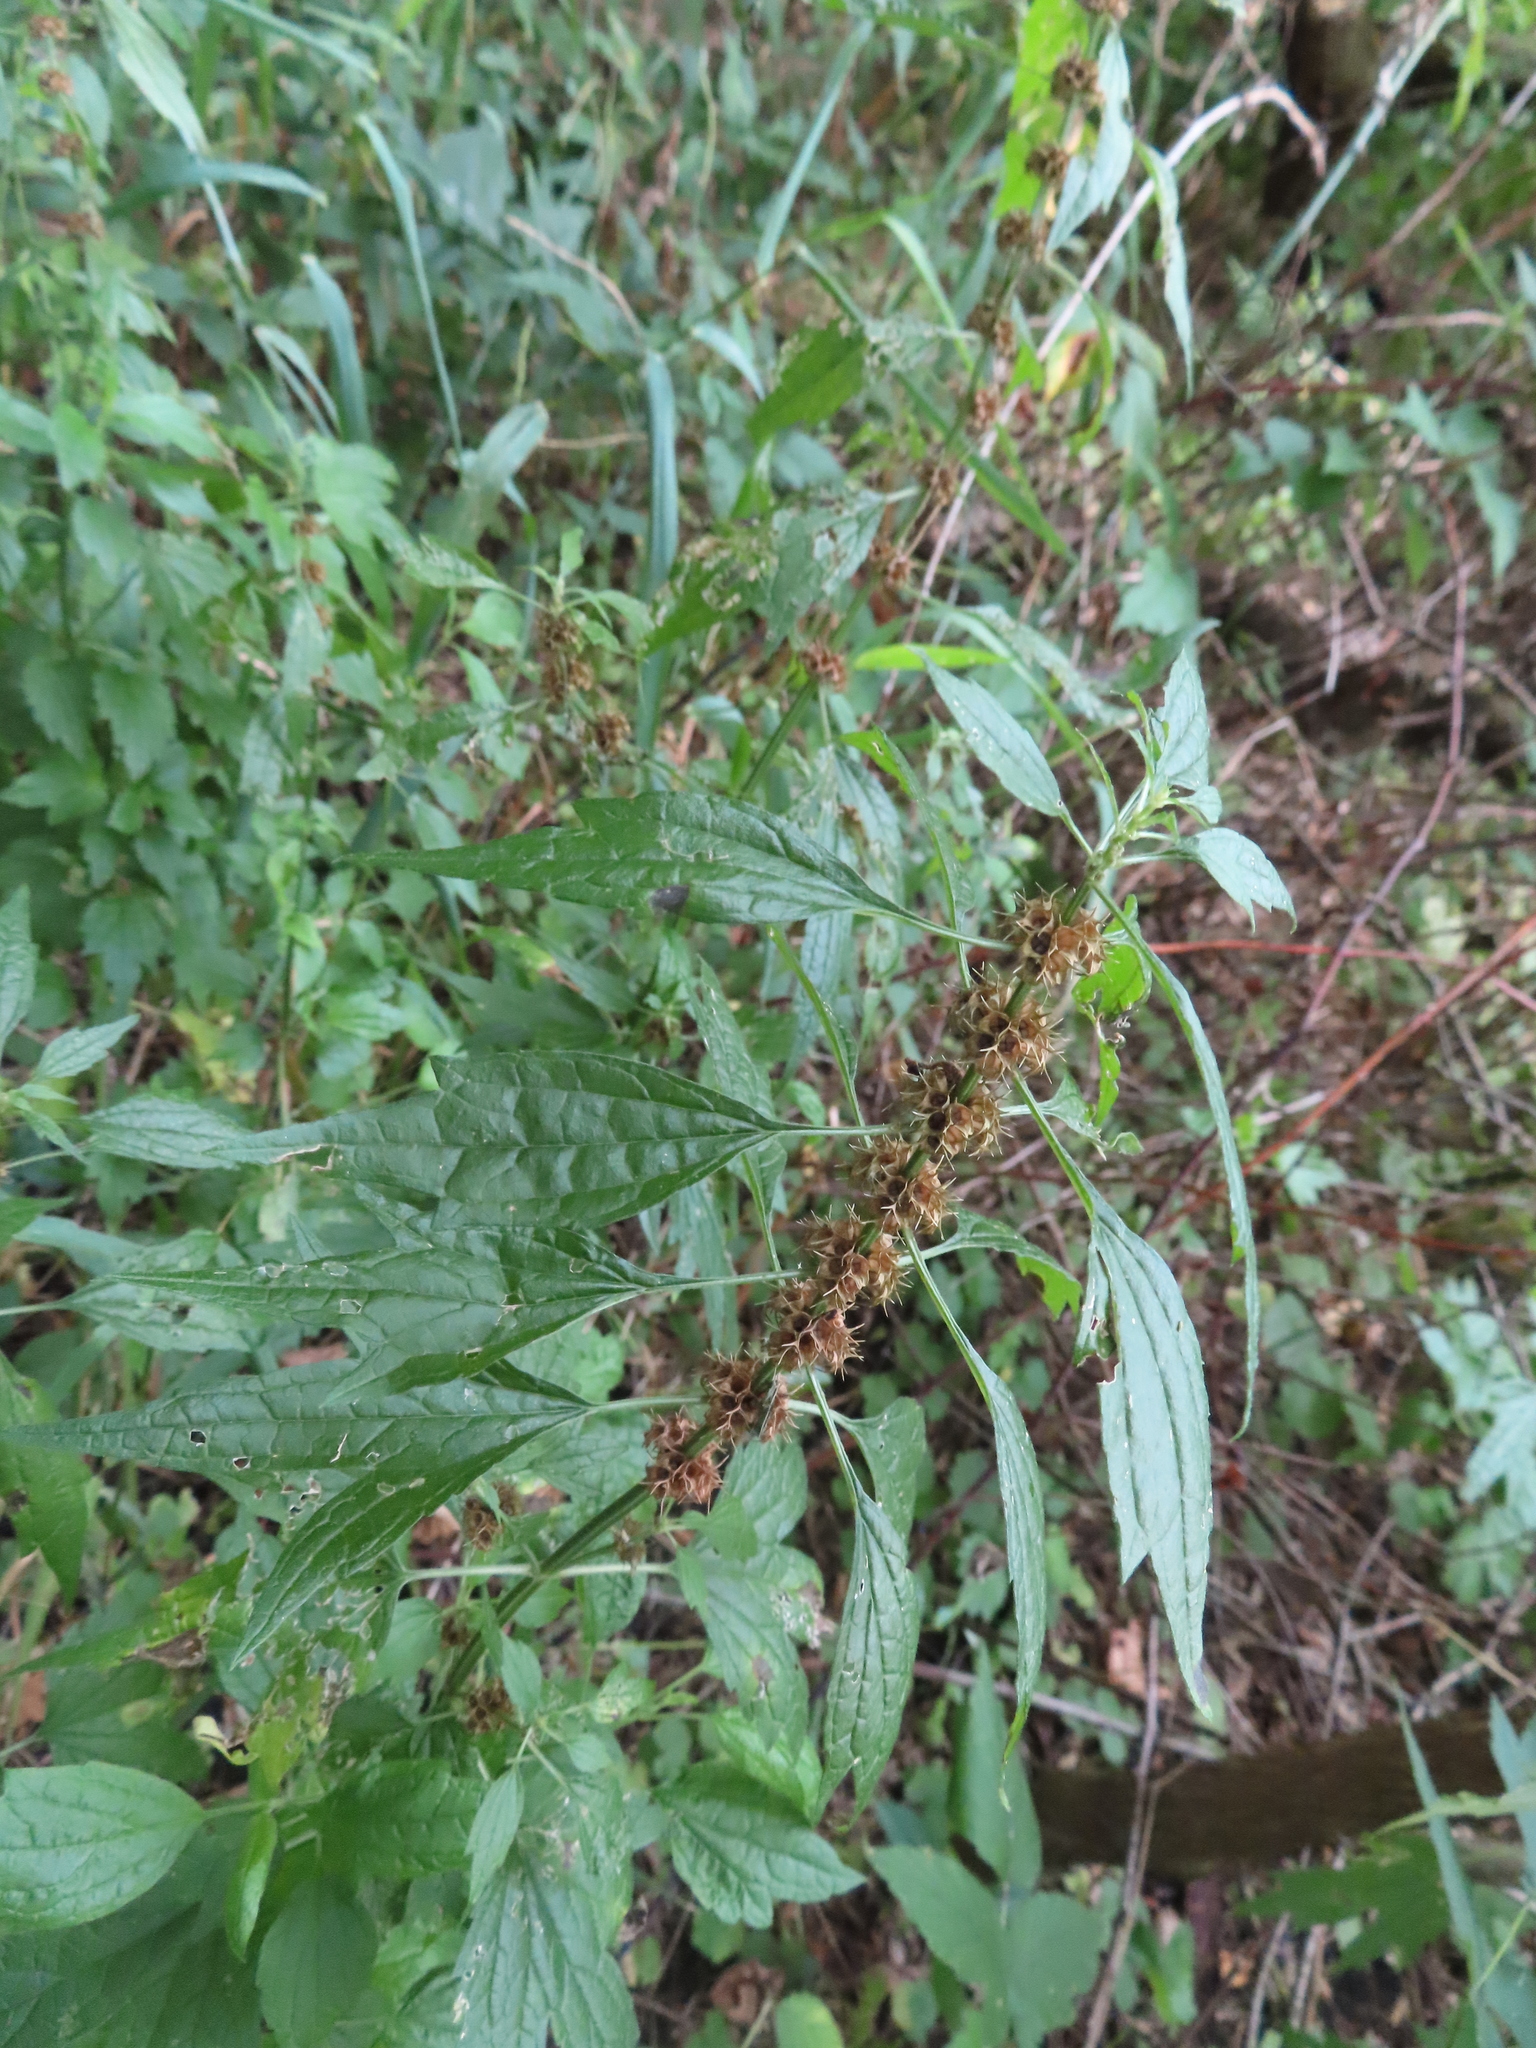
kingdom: Plantae
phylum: Tracheophyta
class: Magnoliopsida
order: Lamiales
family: Lamiaceae
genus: Leonurus
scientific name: Leonurus cardiaca
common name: Motherwort
